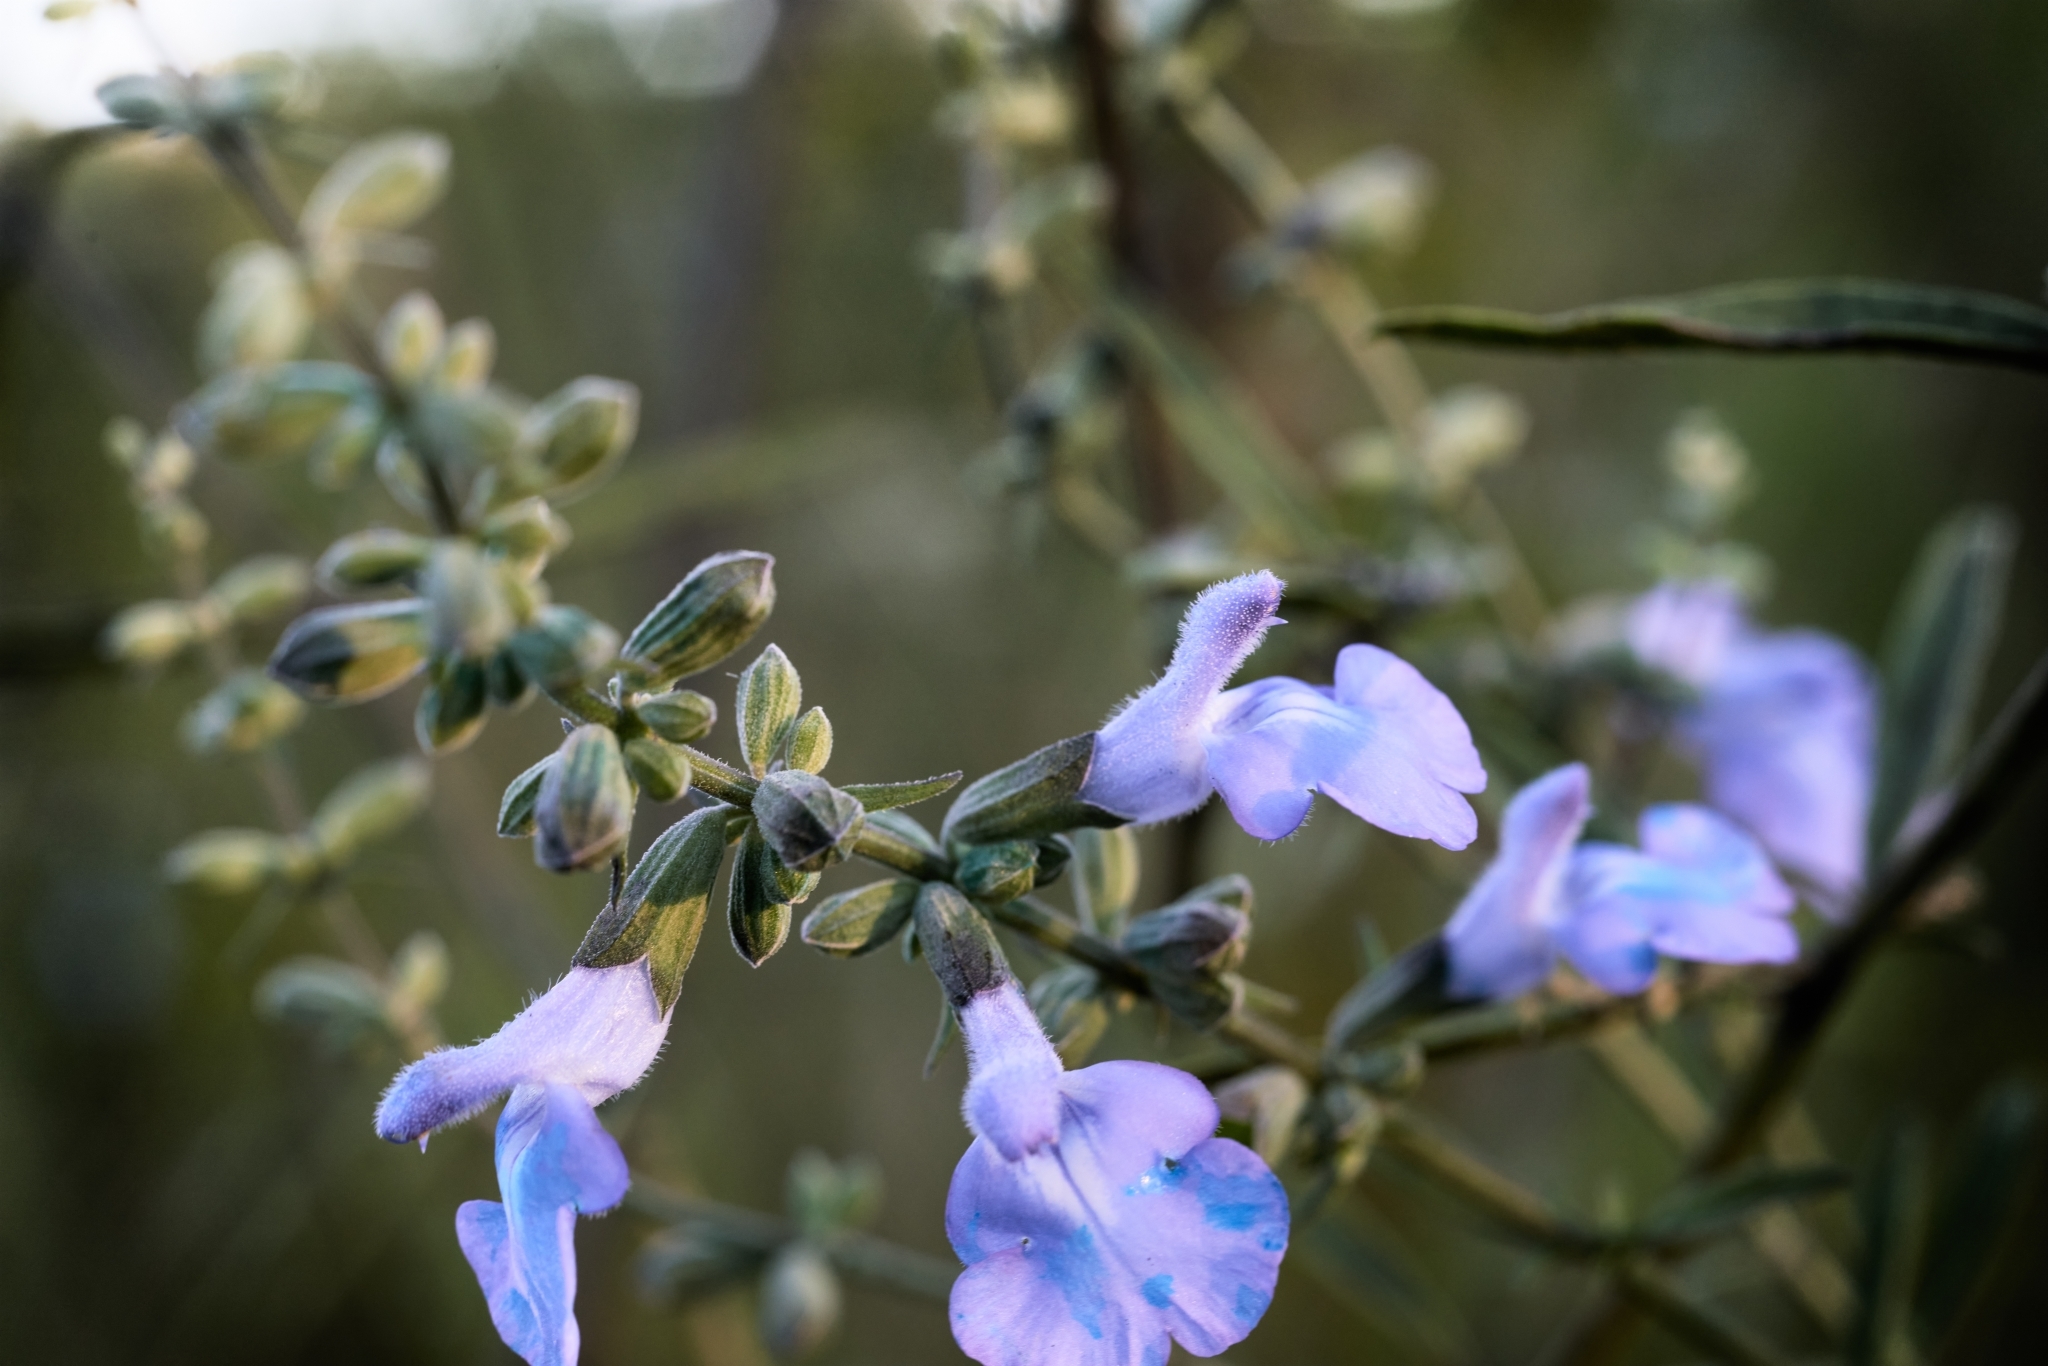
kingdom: Plantae
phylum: Tracheophyta
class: Magnoliopsida
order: Lamiales
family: Lamiaceae
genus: Salvia
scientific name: Salvia azurea
